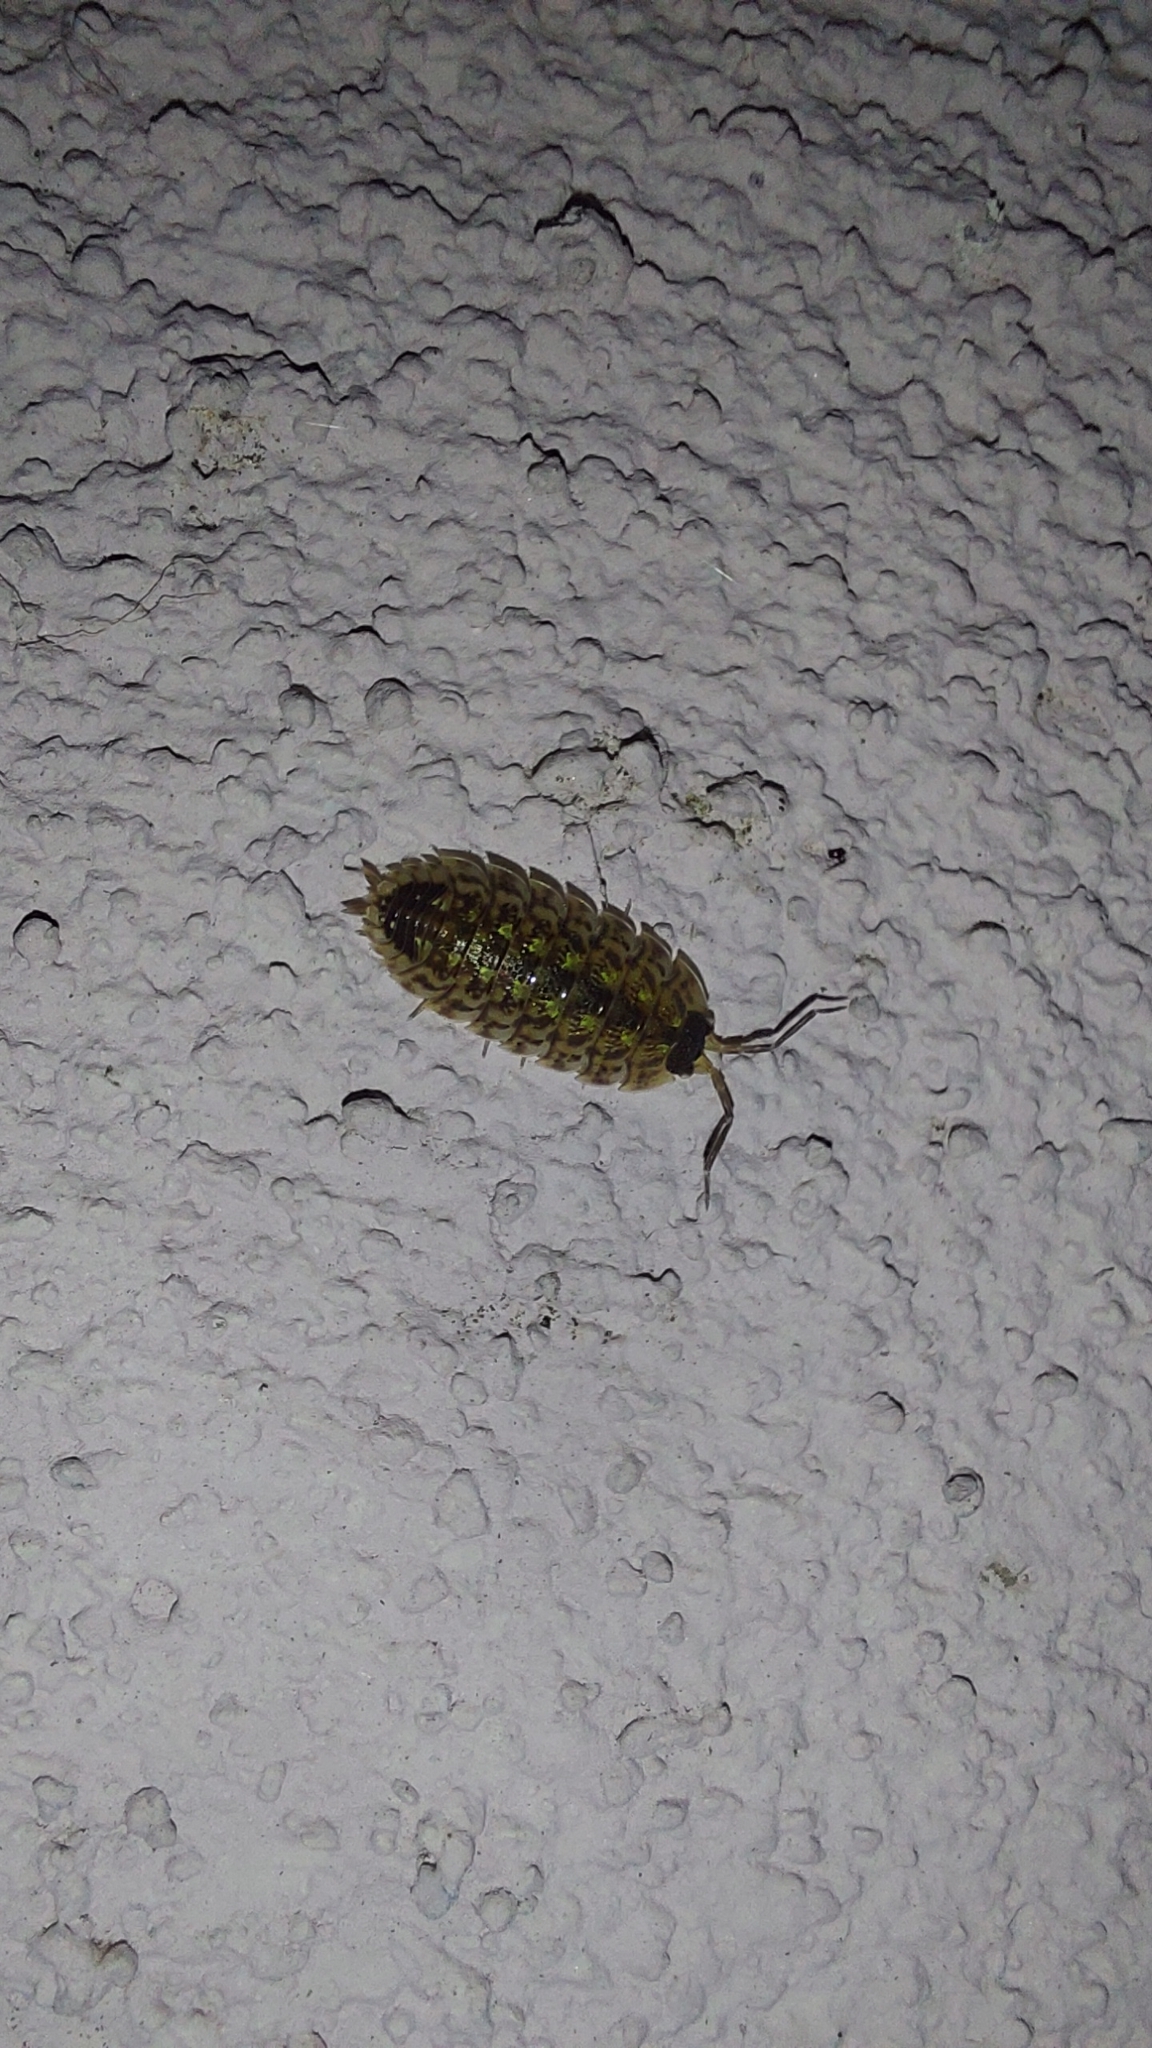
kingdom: Animalia
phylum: Arthropoda
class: Malacostraca
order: Isopoda
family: Porcellionidae
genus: Porcellio
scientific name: Porcellio spinicornis
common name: Painted woodlouse
